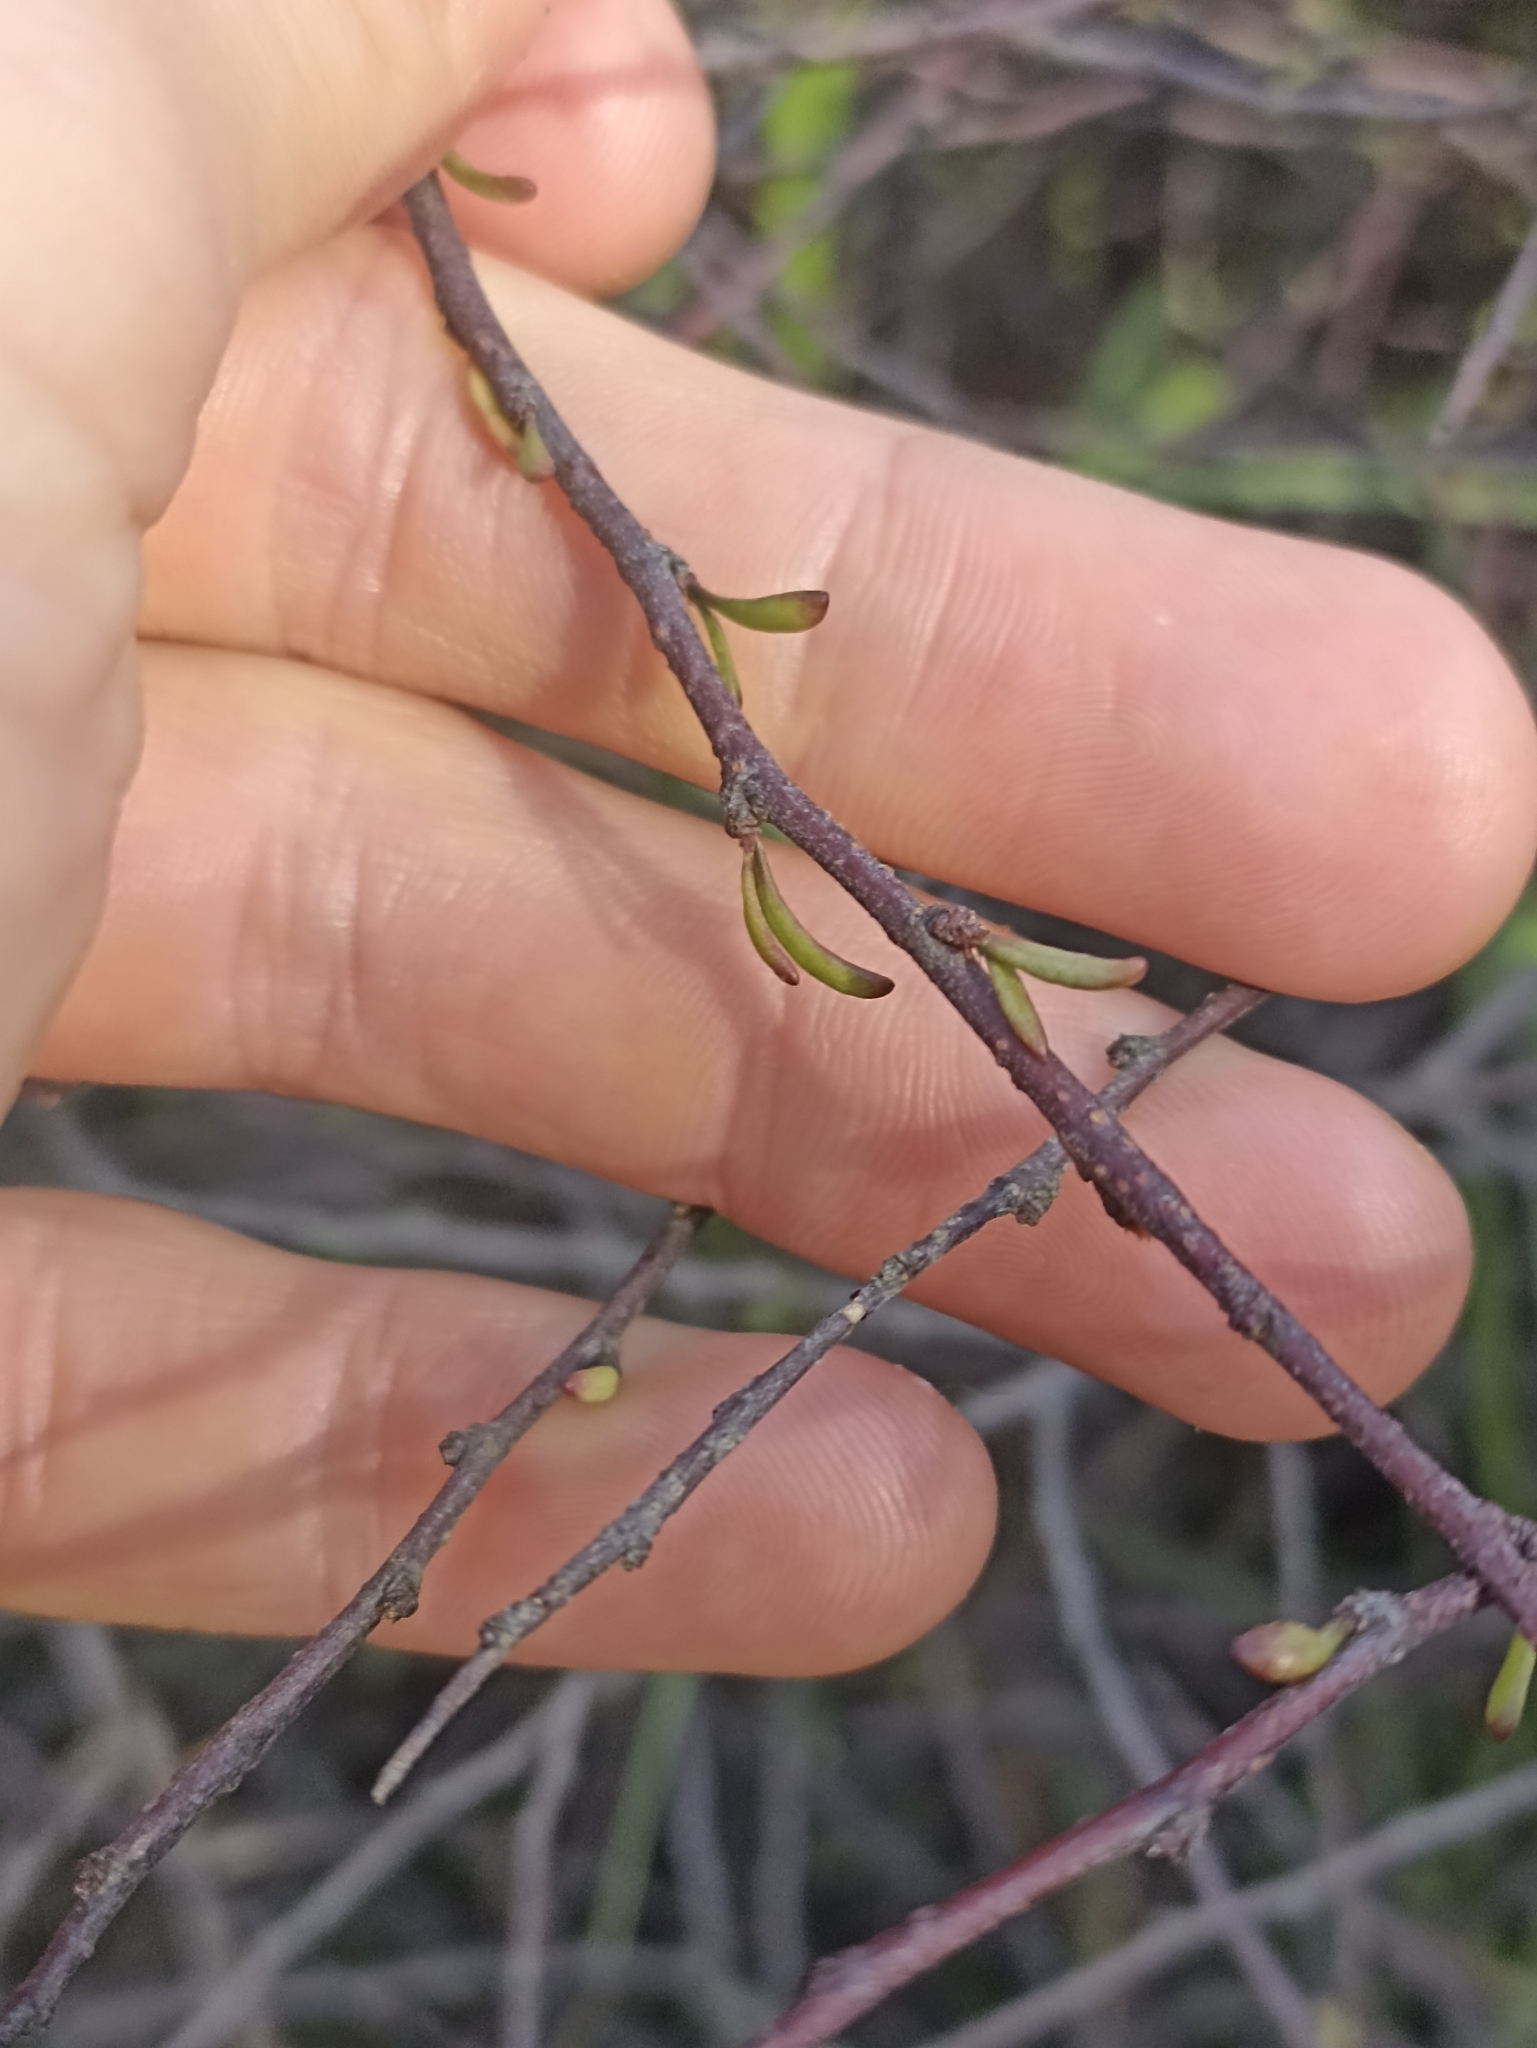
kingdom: Plantae
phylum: Tracheophyta
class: Magnoliopsida
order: Malvales
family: Malvaceae
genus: Plagianthus
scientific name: Plagianthus divaricatus
